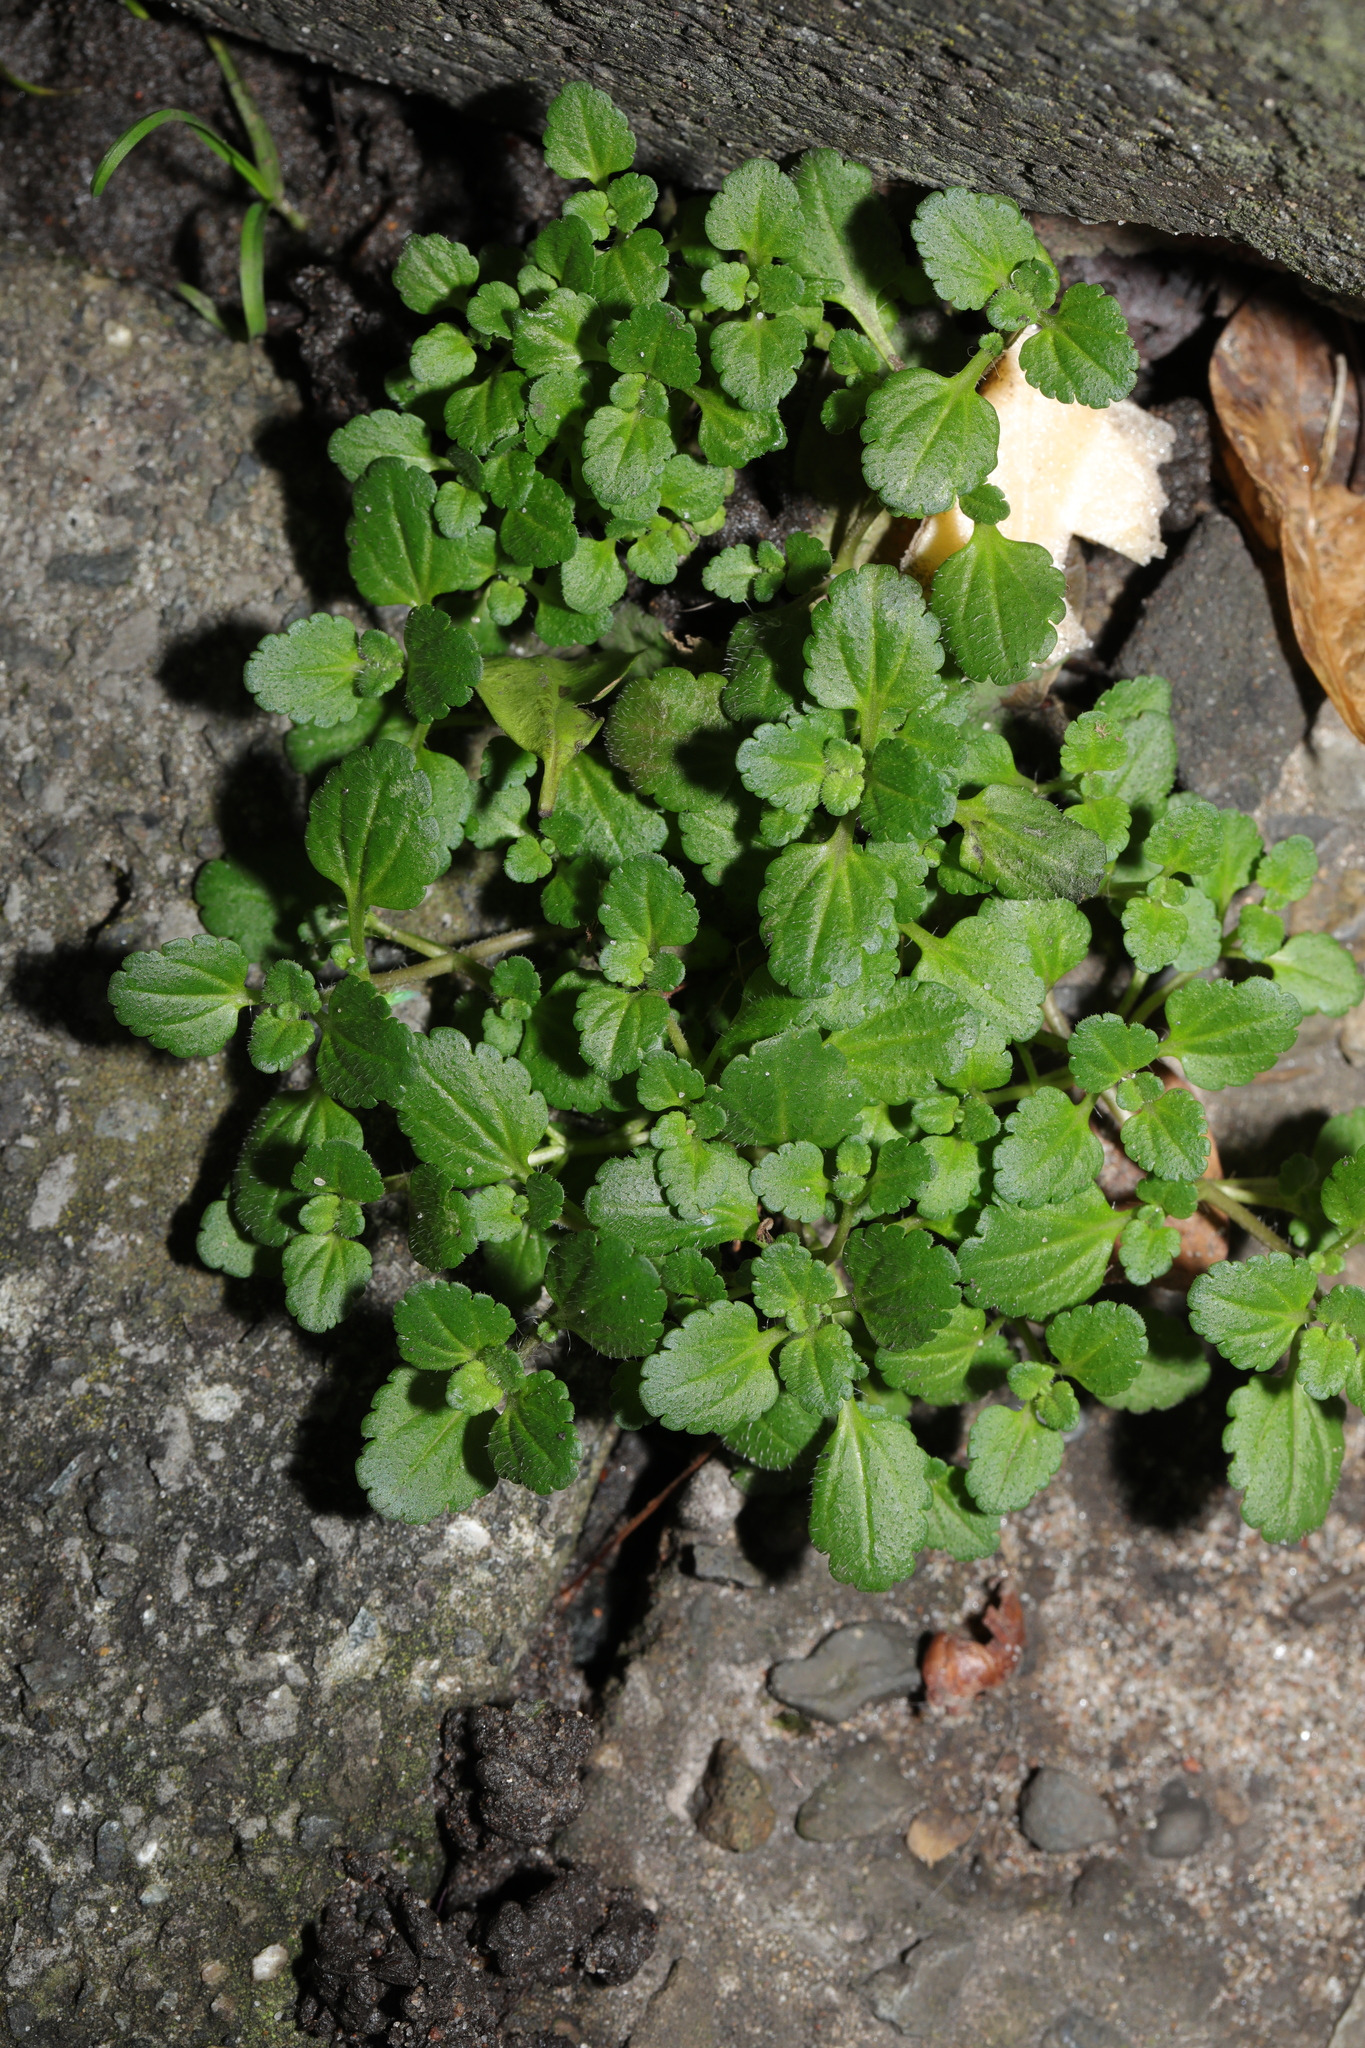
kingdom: Plantae
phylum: Tracheophyta
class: Magnoliopsida
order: Lamiales
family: Plantaginaceae
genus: Veronica
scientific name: Veronica arvensis
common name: Corn speedwell
